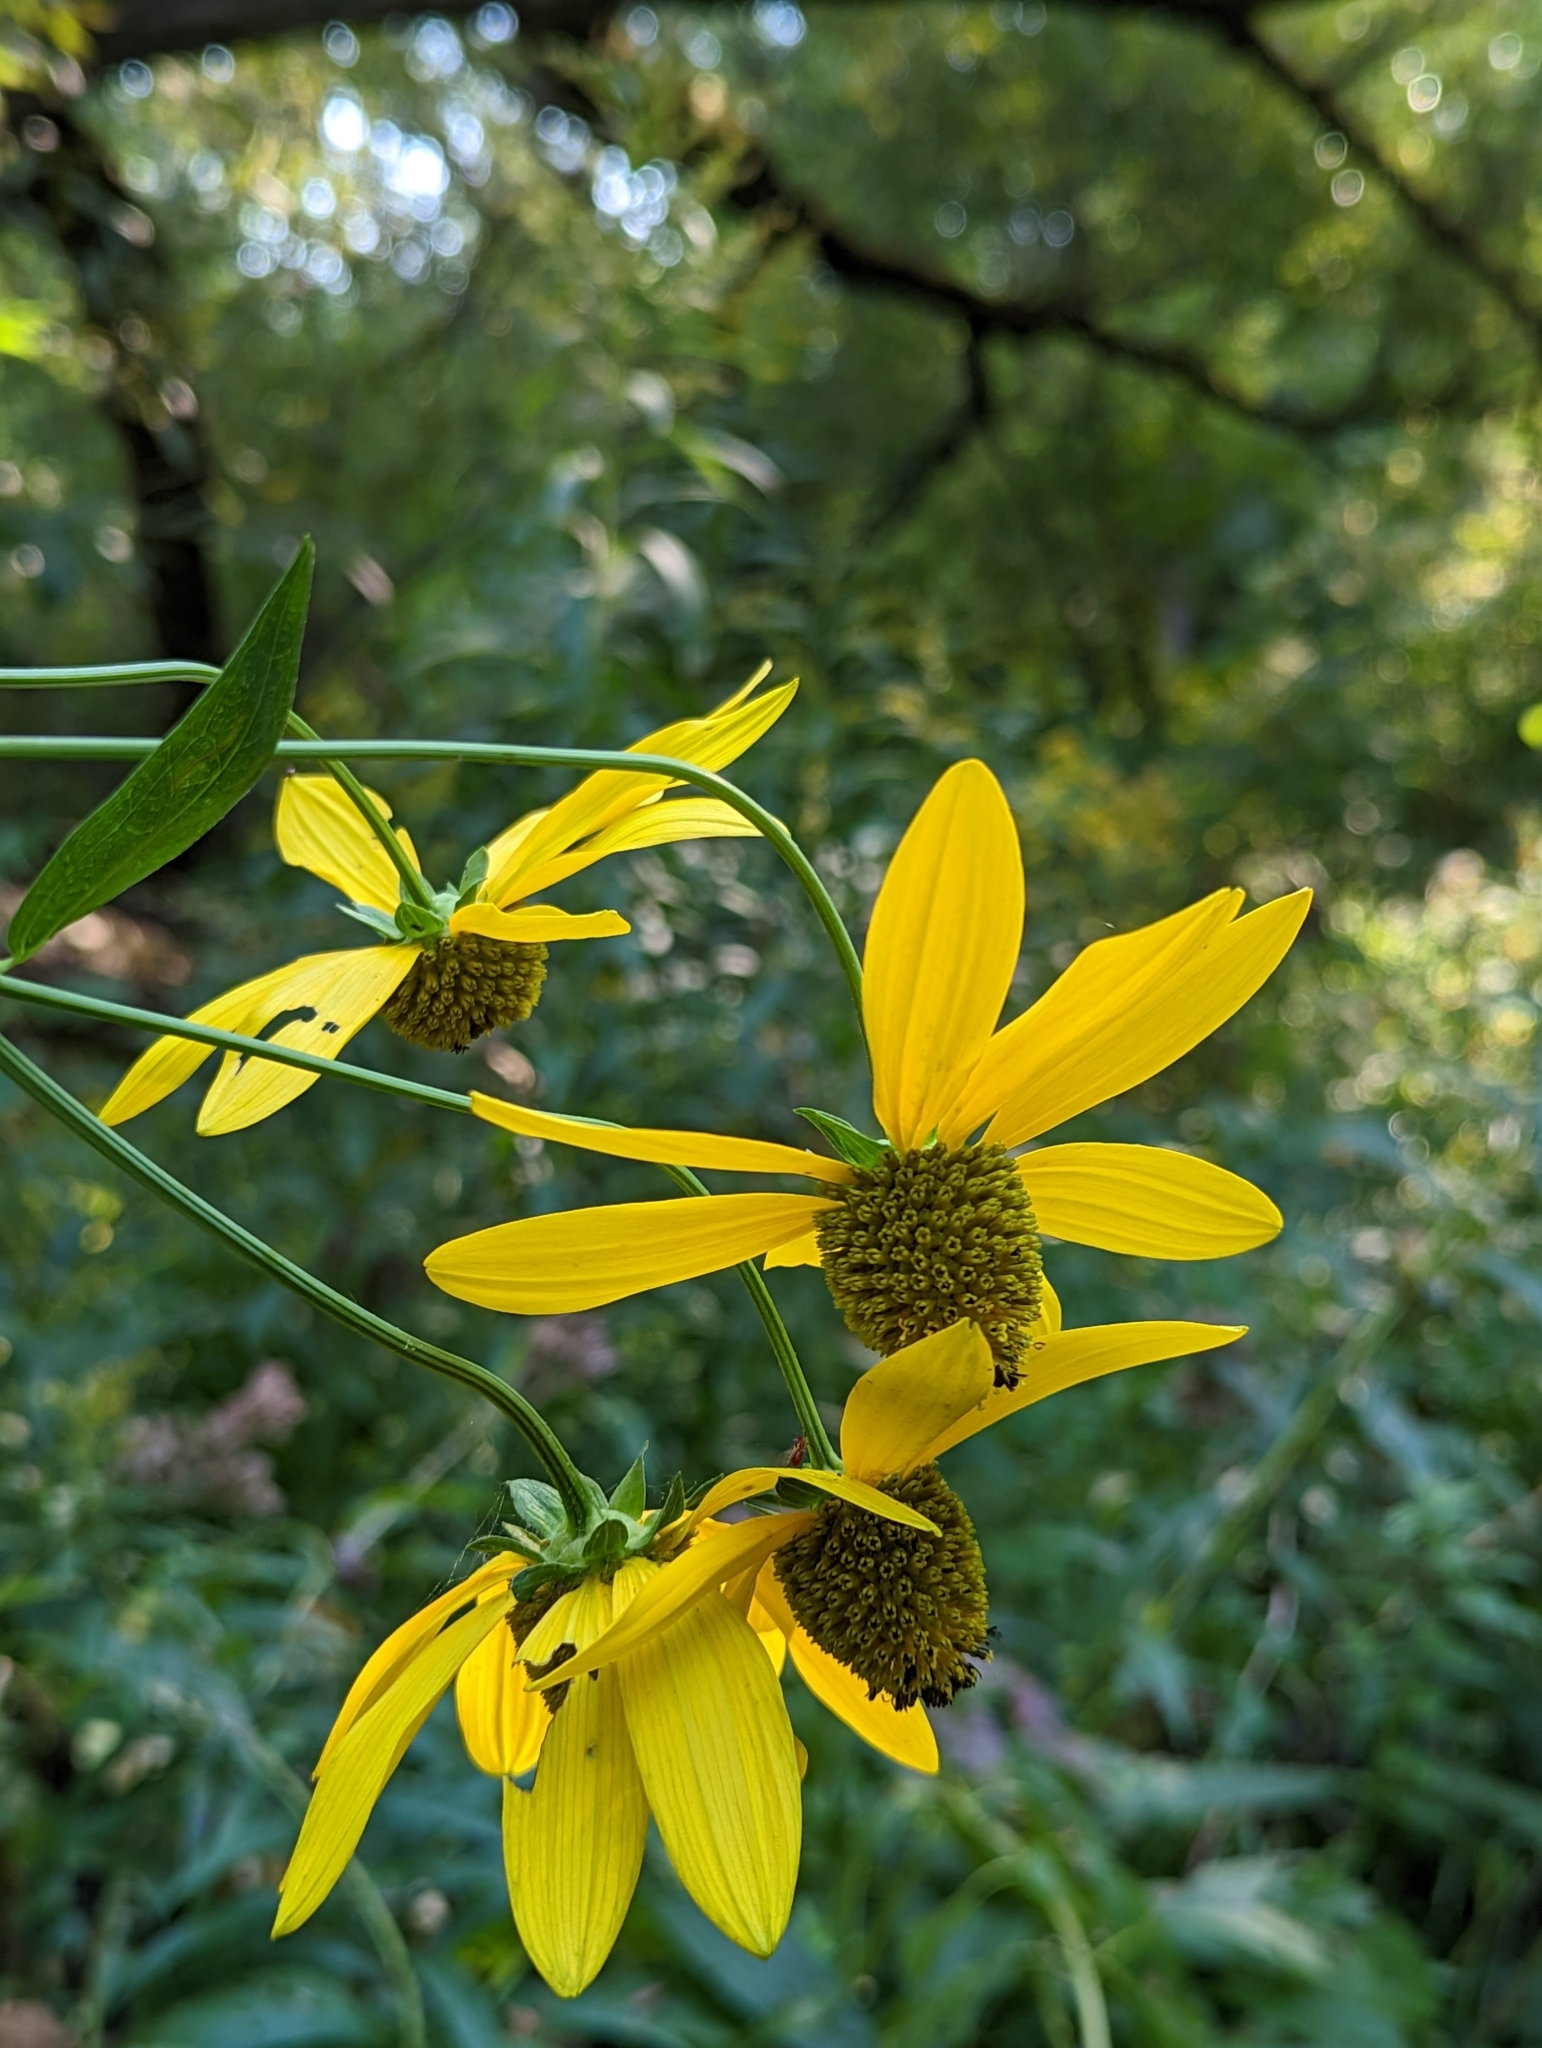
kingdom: Plantae
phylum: Tracheophyta
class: Magnoliopsida
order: Asterales
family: Asteraceae
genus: Rudbeckia
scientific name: Rudbeckia laciniata
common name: Coneflower
